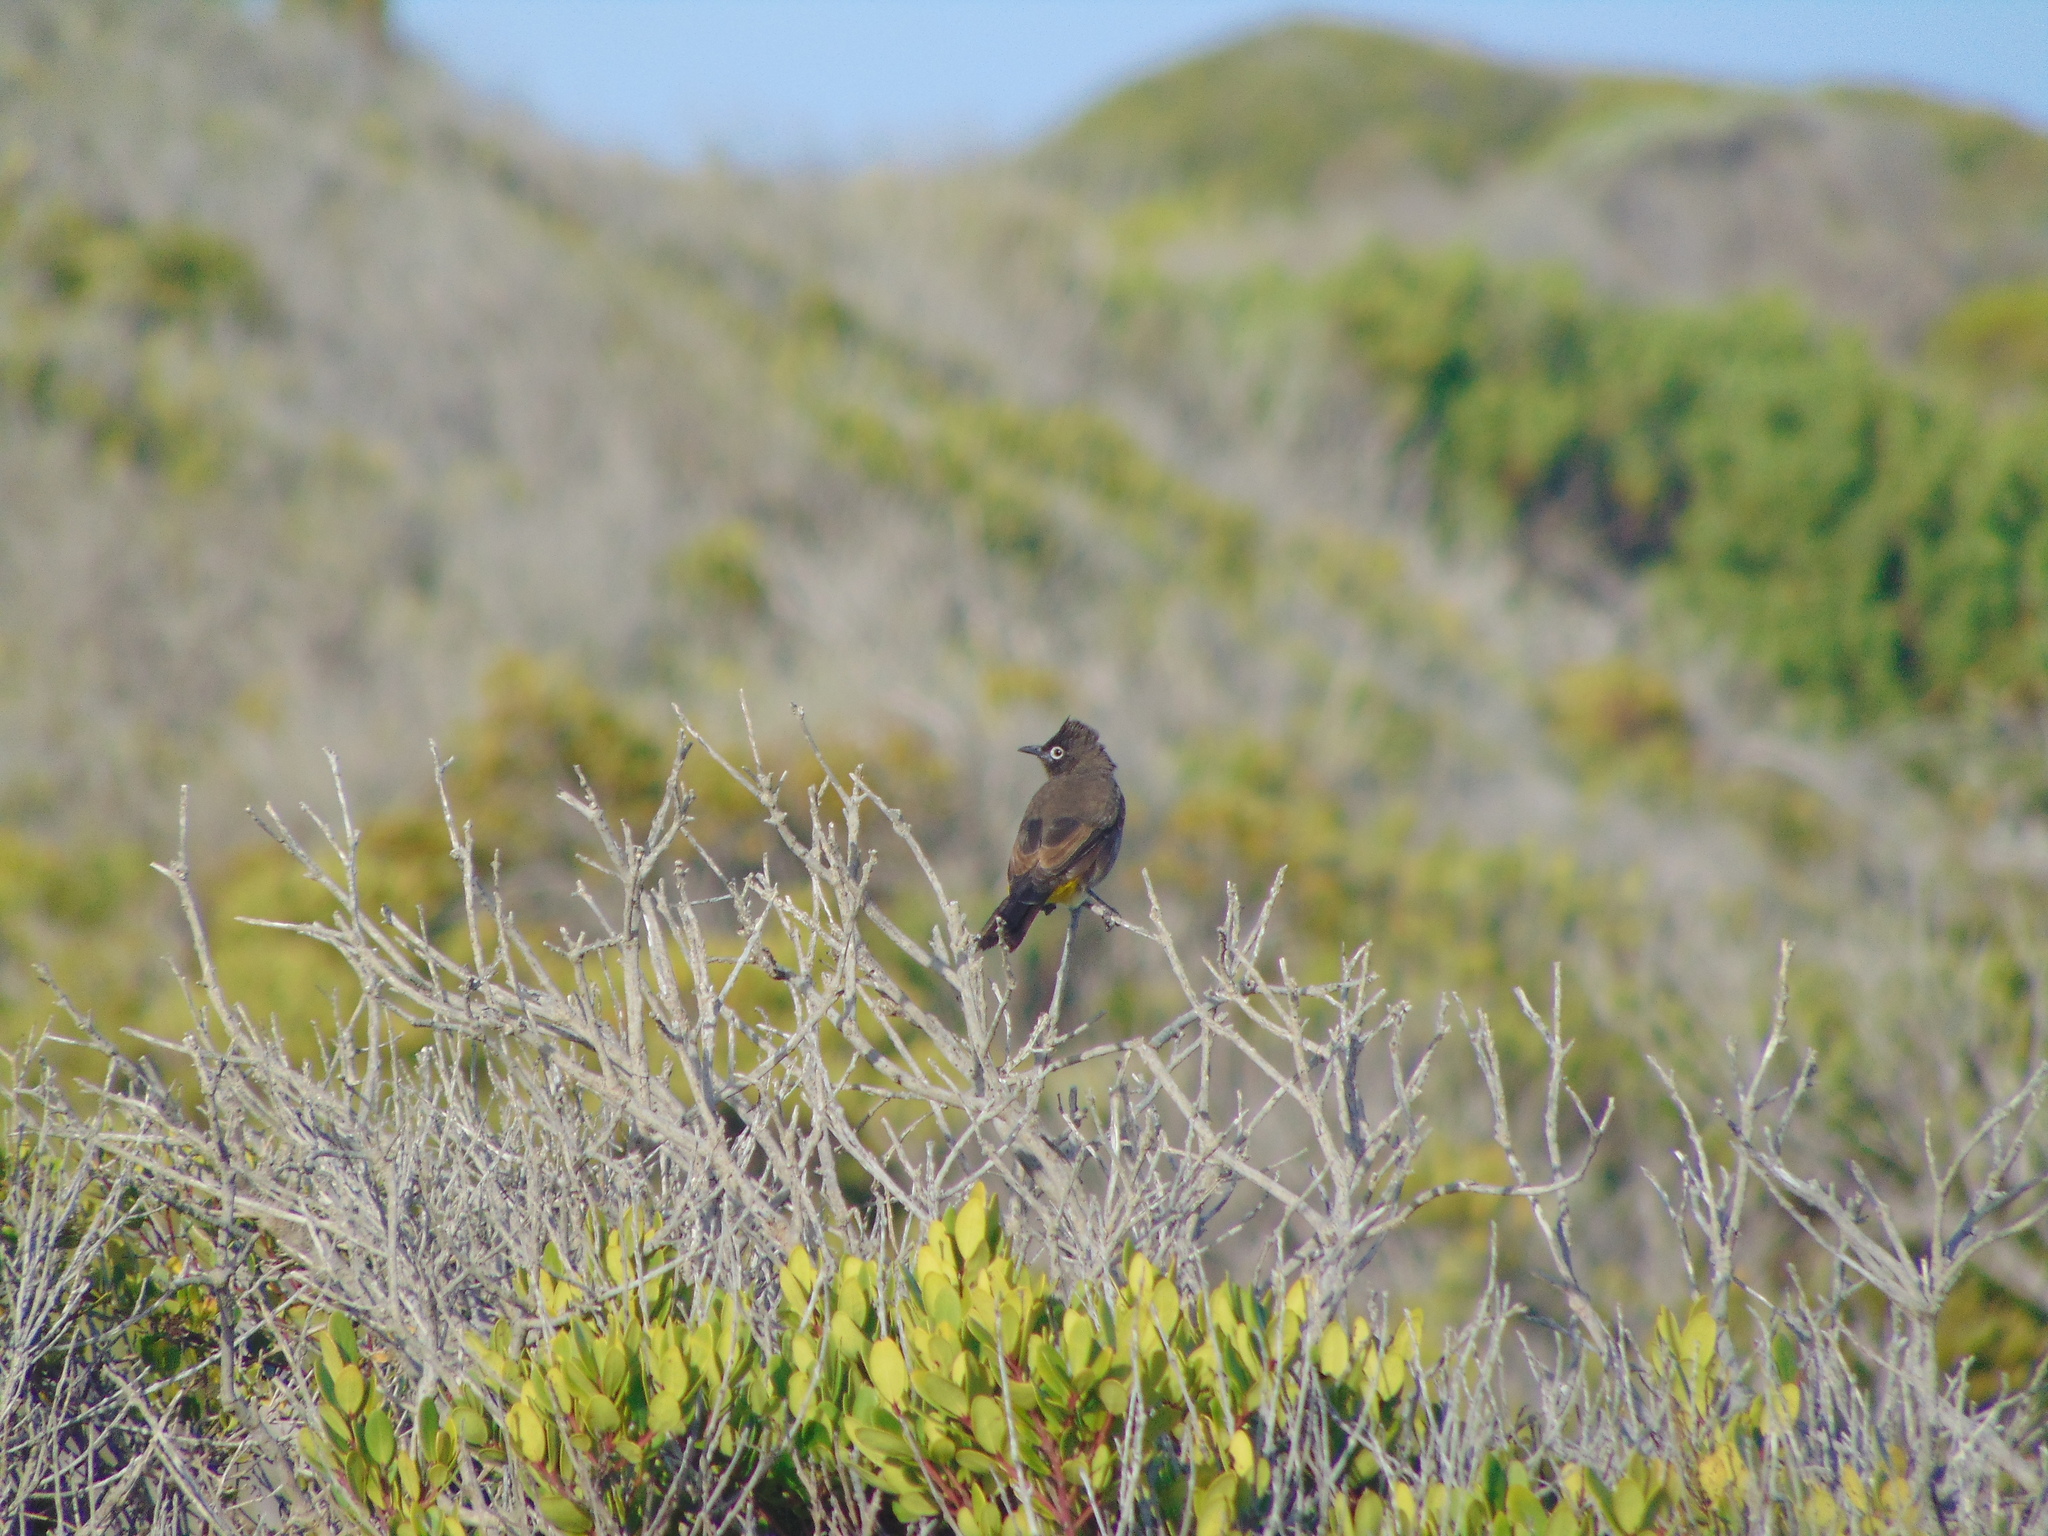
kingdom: Animalia
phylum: Chordata
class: Aves
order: Passeriformes
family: Pycnonotidae
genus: Pycnonotus
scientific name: Pycnonotus capensis
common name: Cape bulbul
